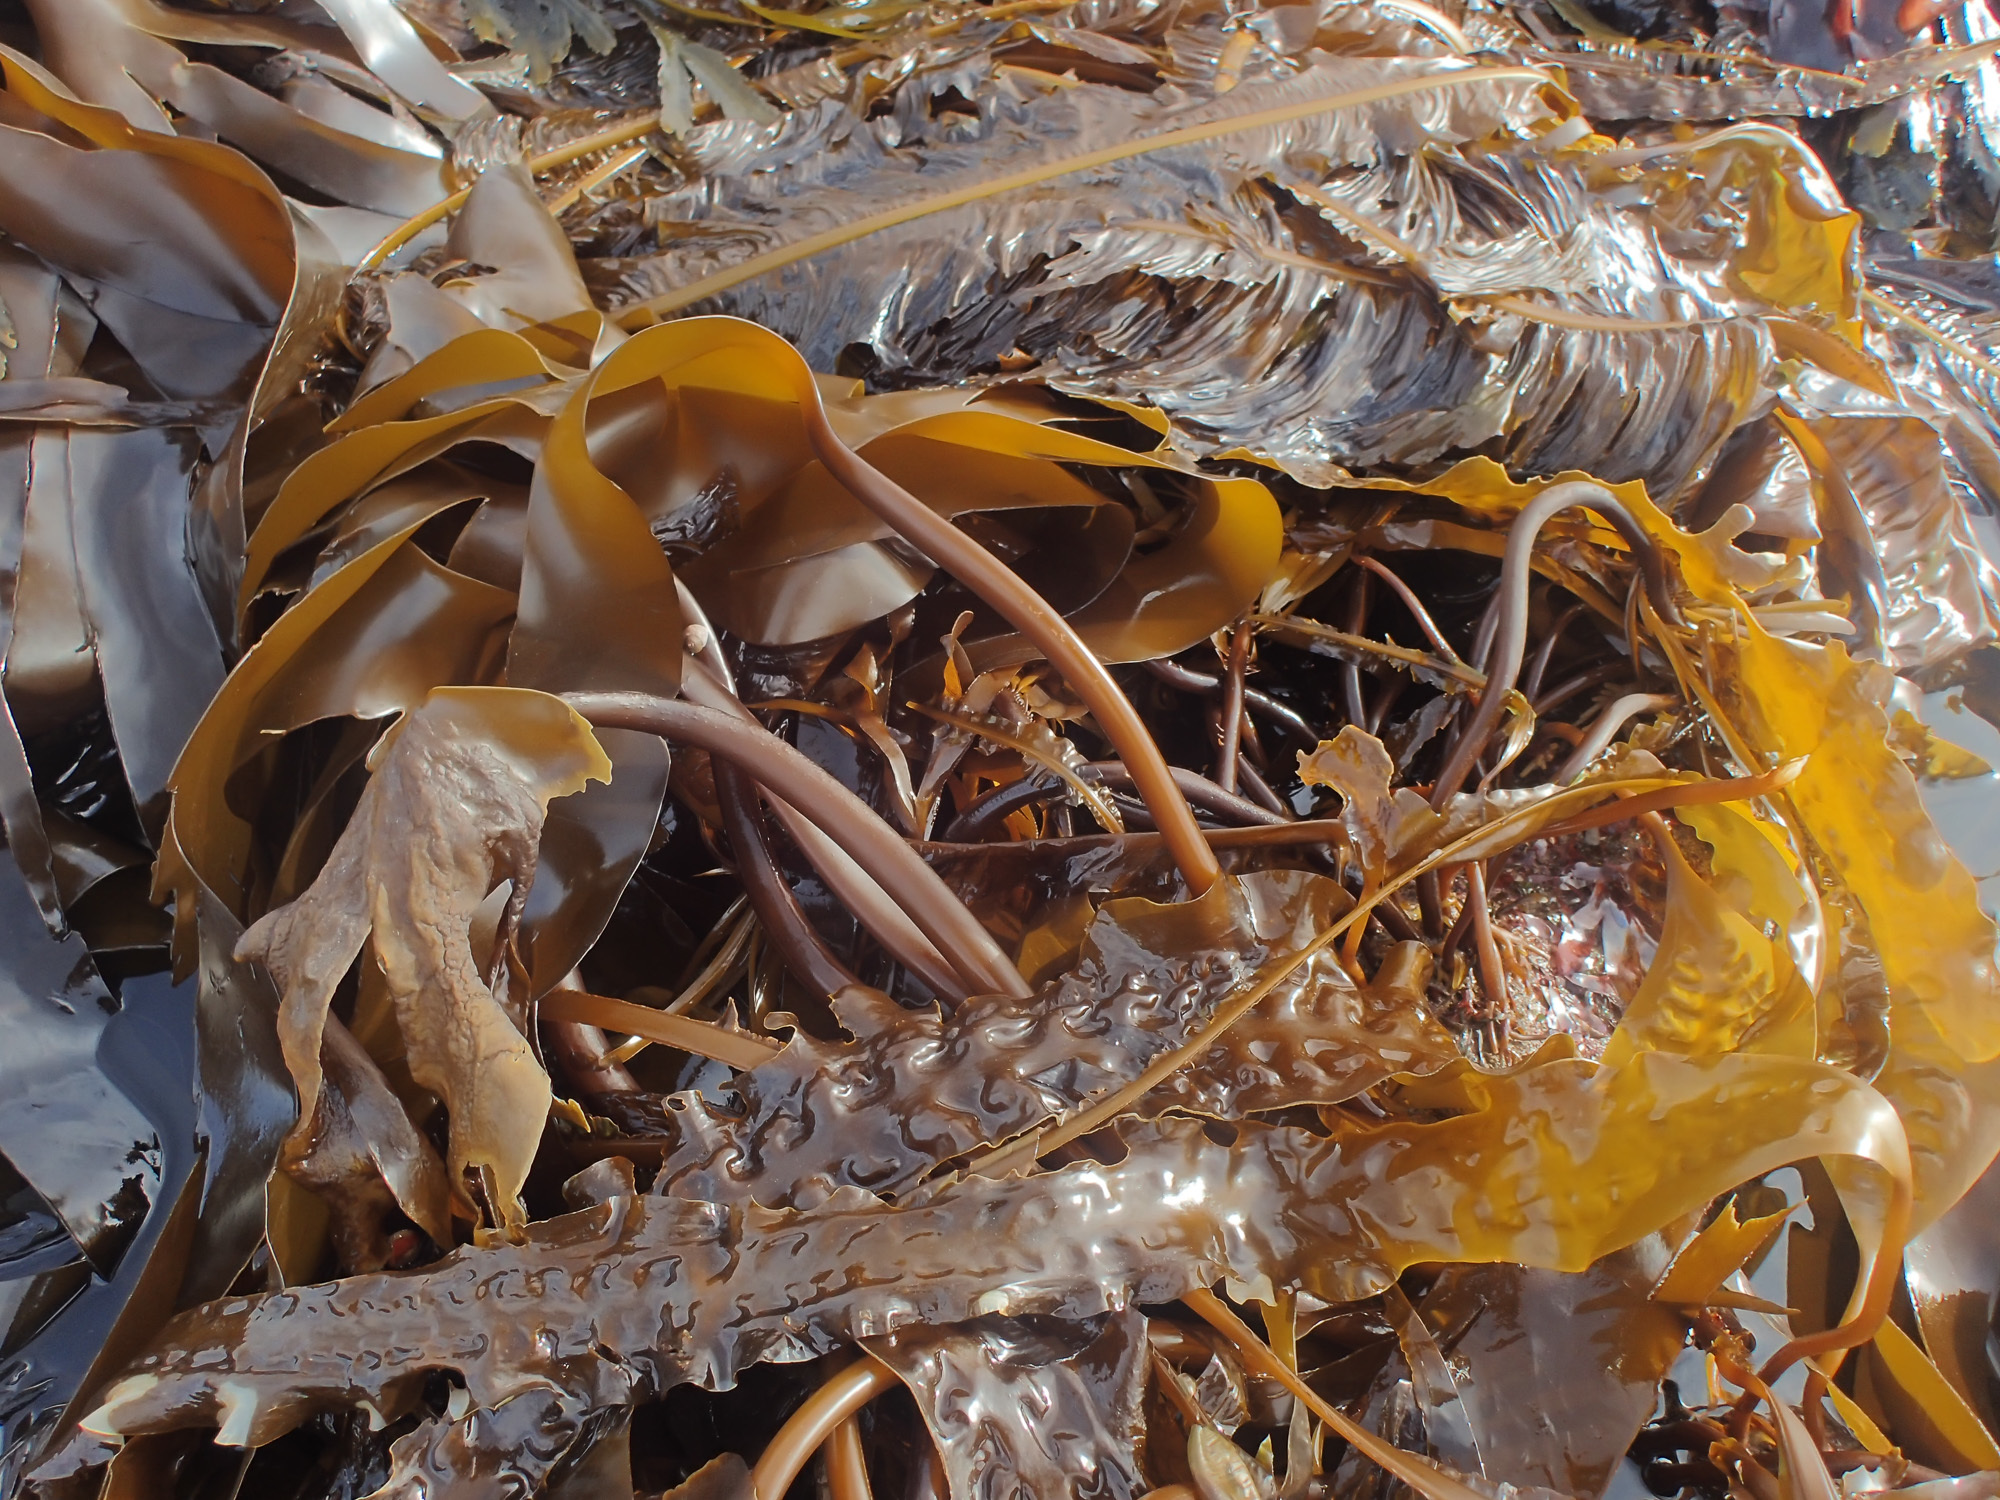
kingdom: Chromista
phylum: Ochrophyta
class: Phaeophyceae
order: Laminariales
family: Laminariaceae
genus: Saccharina
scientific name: Saccharina latissima
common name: Poor man's weather glass
